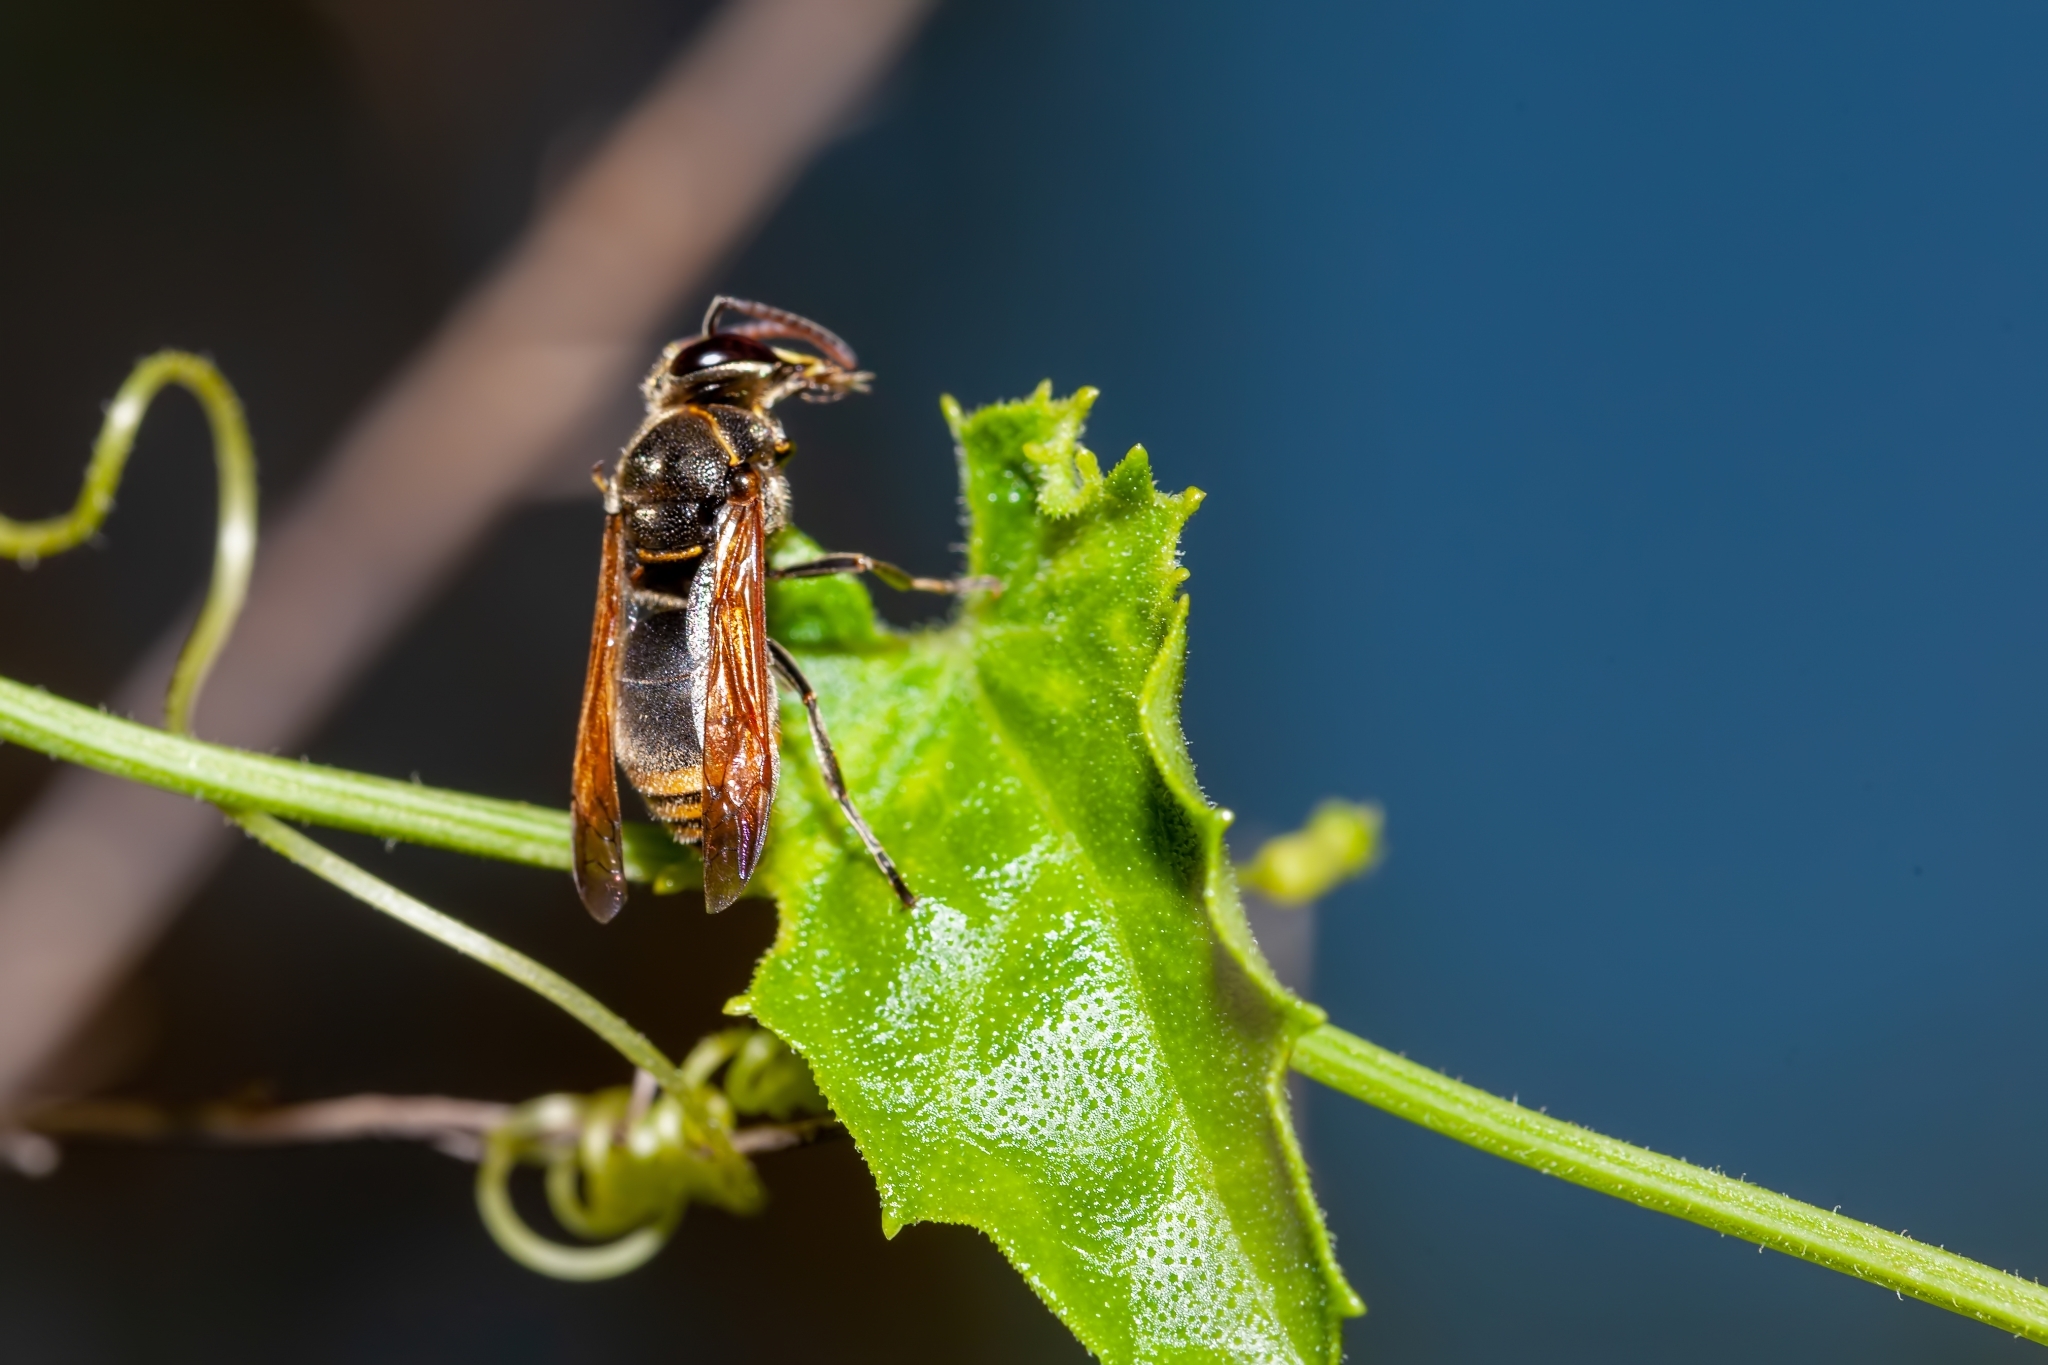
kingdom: Animalia
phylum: Arthropoda
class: Insecta
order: Hymenoptera
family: Eumenidae
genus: Pachodynerus
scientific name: Pachodynerus nasidens
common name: Key hole wasp
